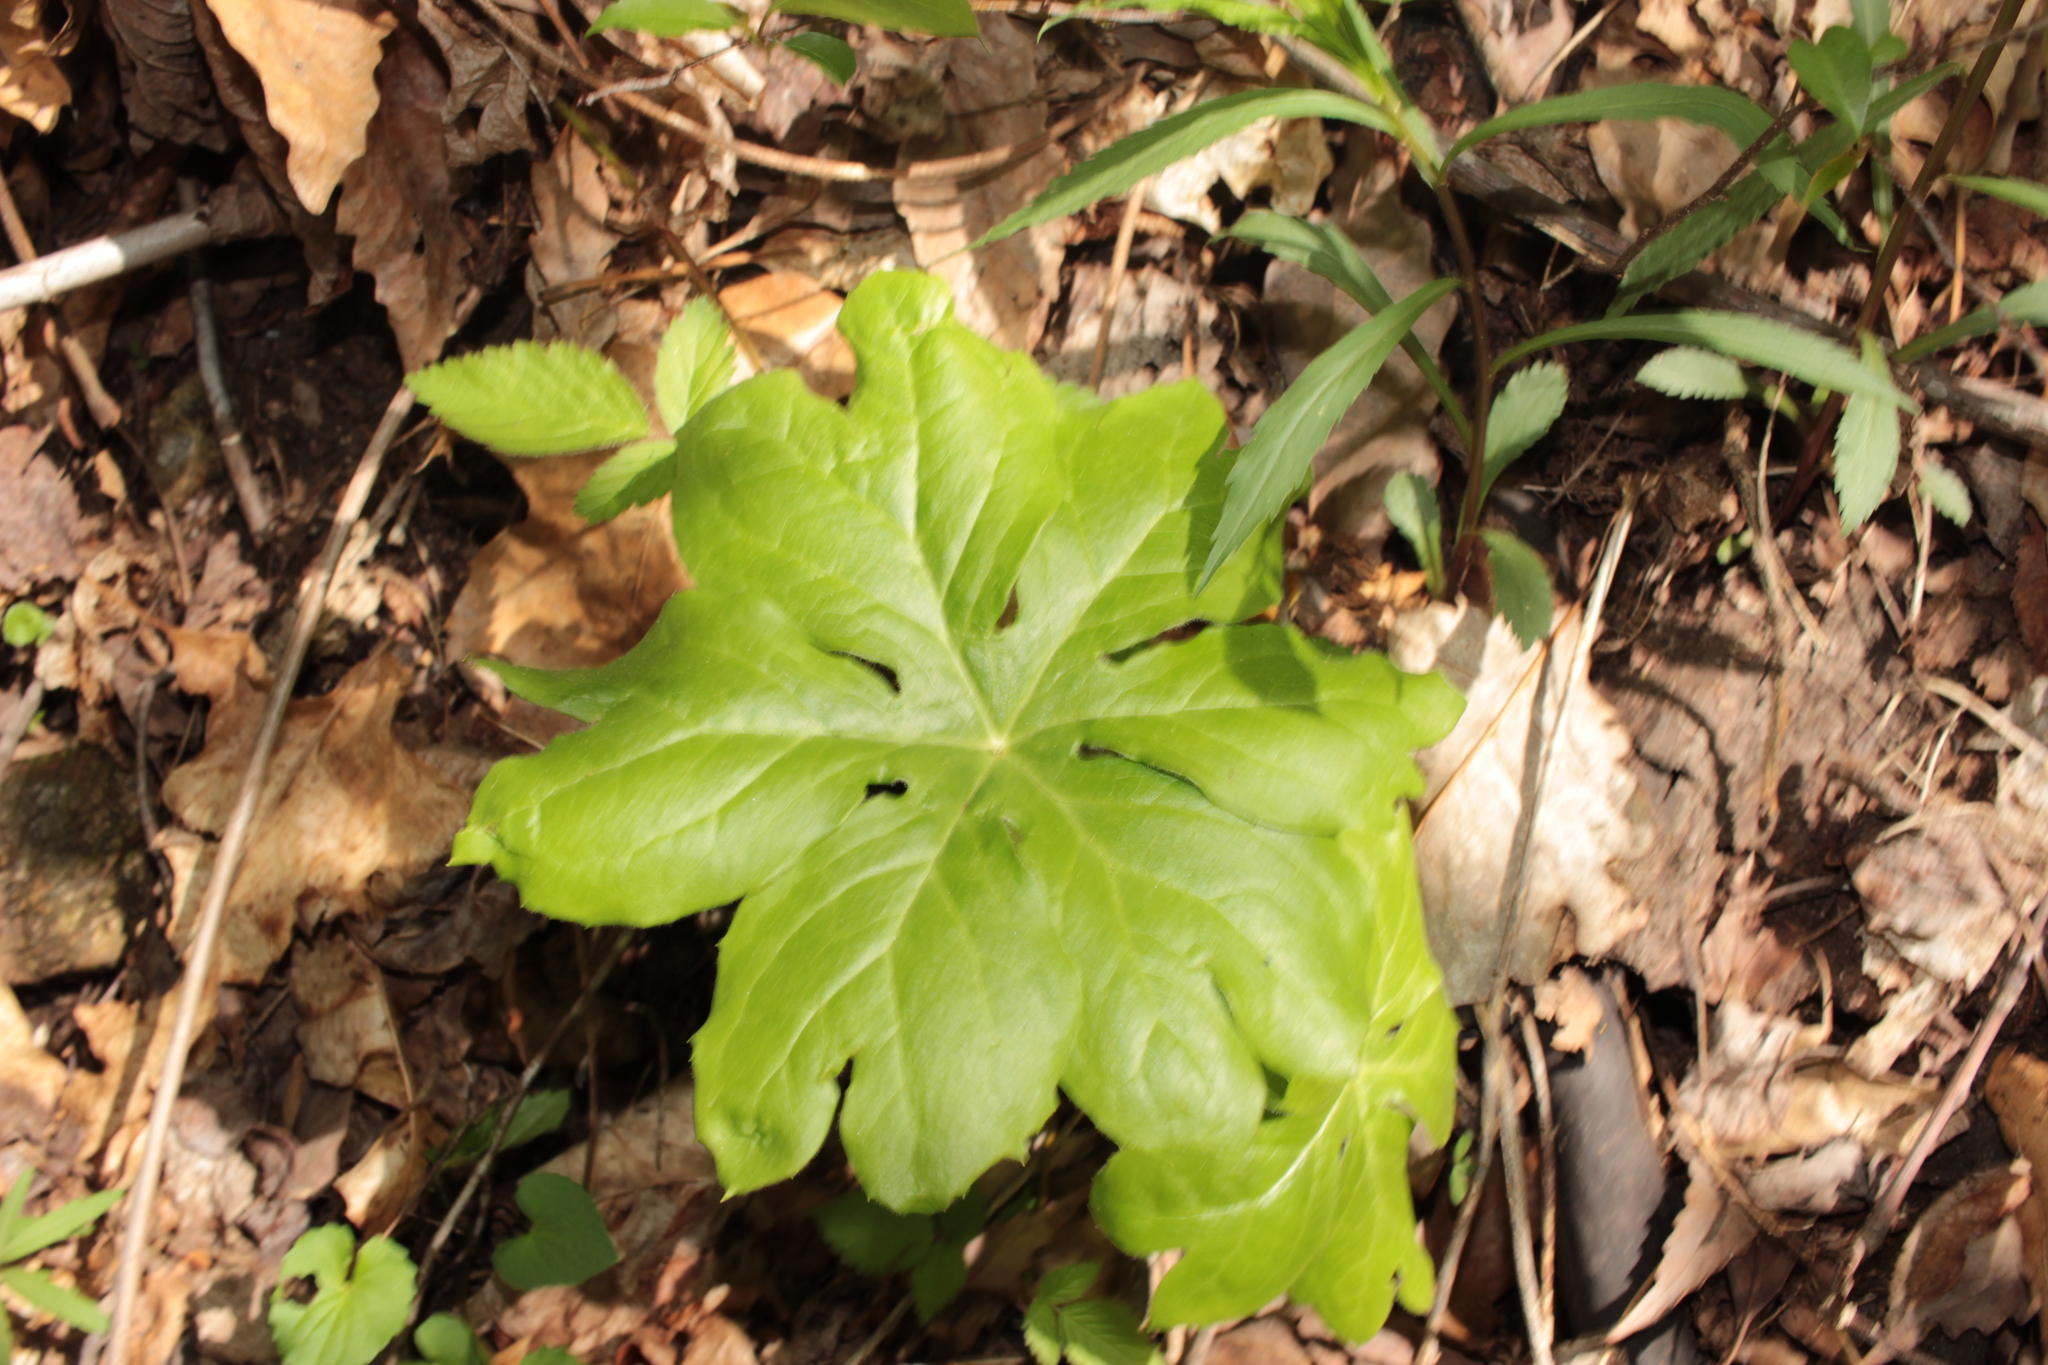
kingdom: Plantae
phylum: Tracheophyta
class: Magnoliopsida
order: Ranunculales
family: Berberidaceae
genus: Podophyllum
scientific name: Podophyllum peltatum
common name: Wild mandrake
